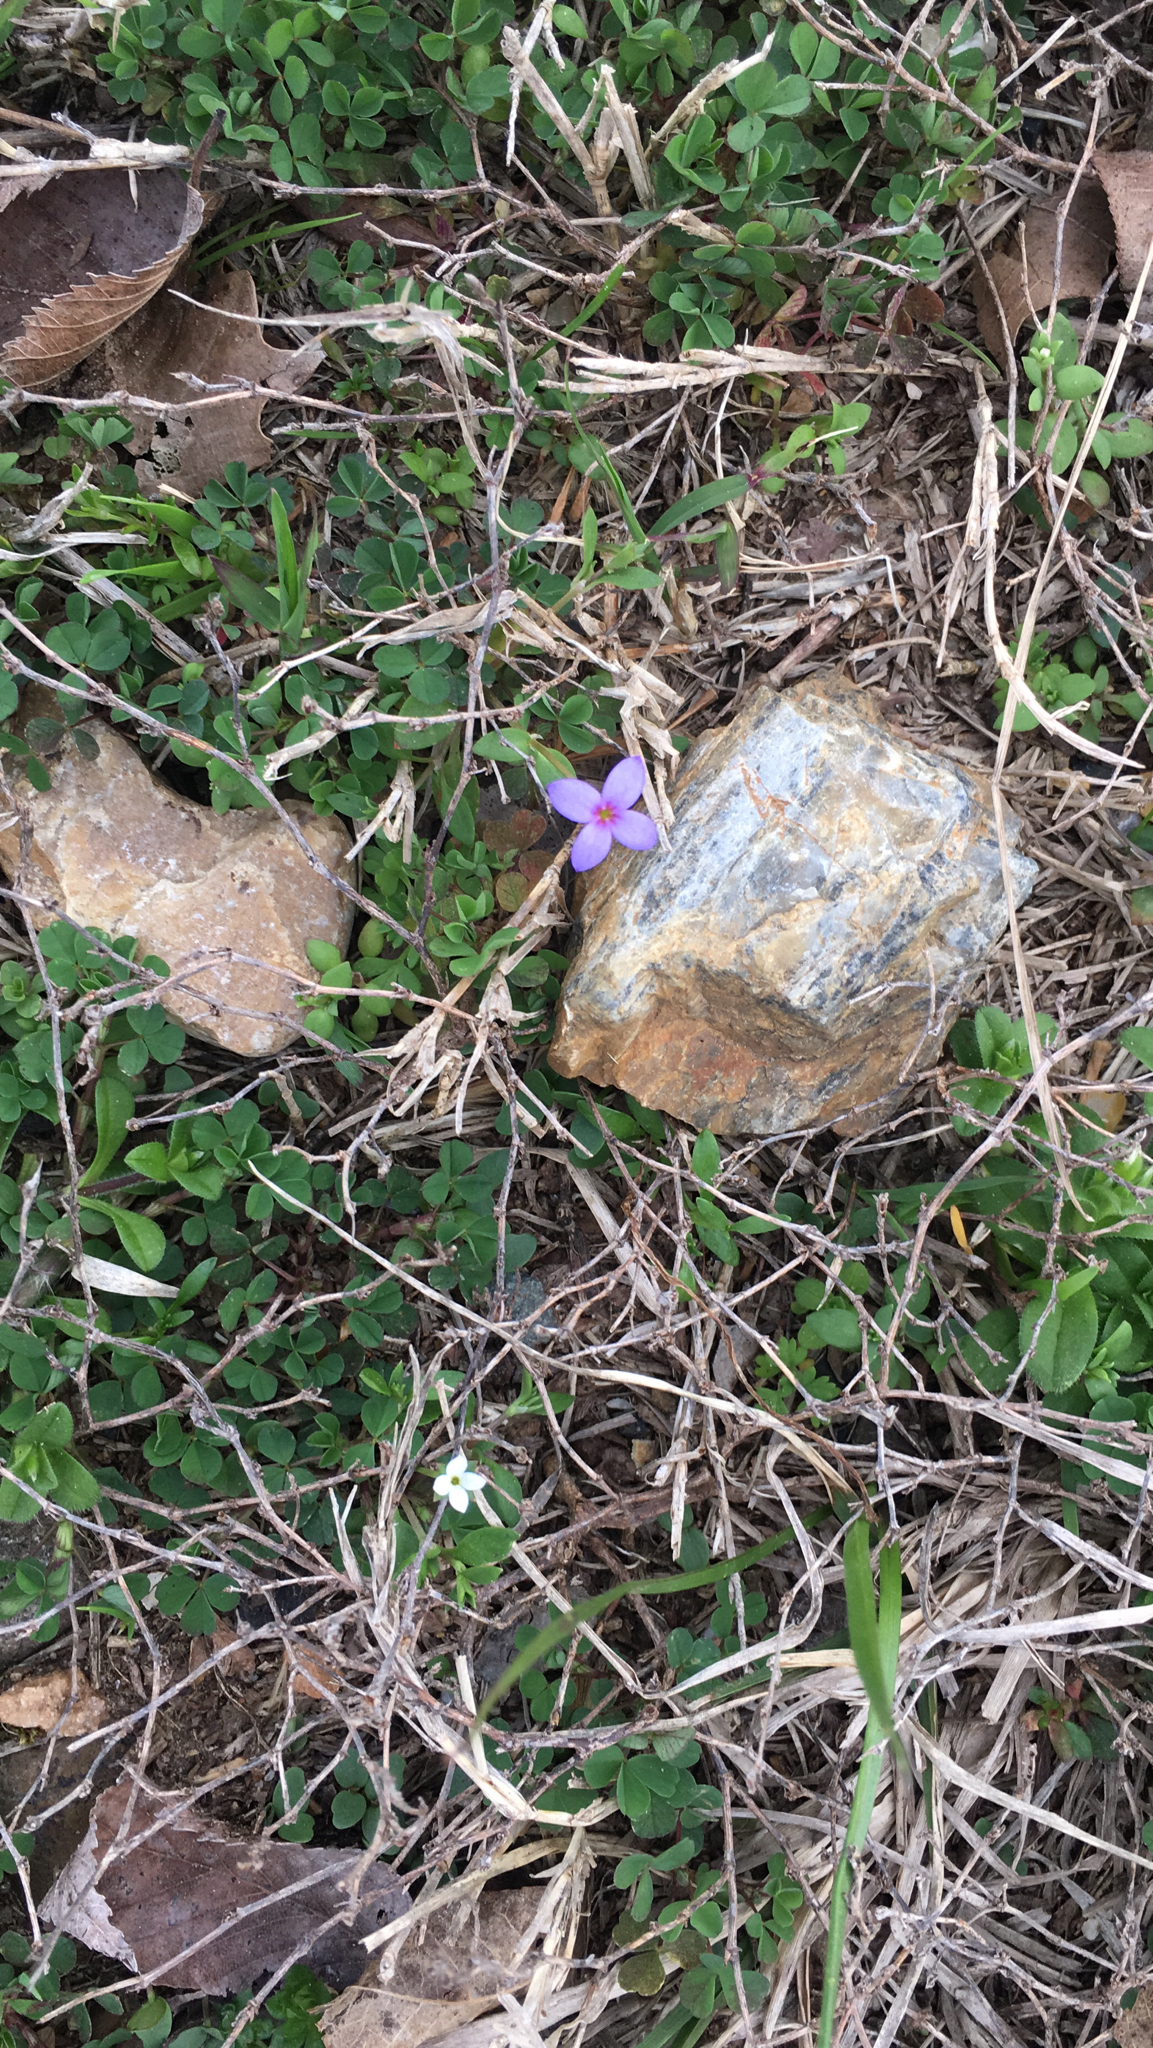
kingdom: Plantae
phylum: Tracheophyta
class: Magnoliopsida
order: Gentianales
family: Rubiaceae
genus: Houstonia
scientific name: Houstonia pusilla
